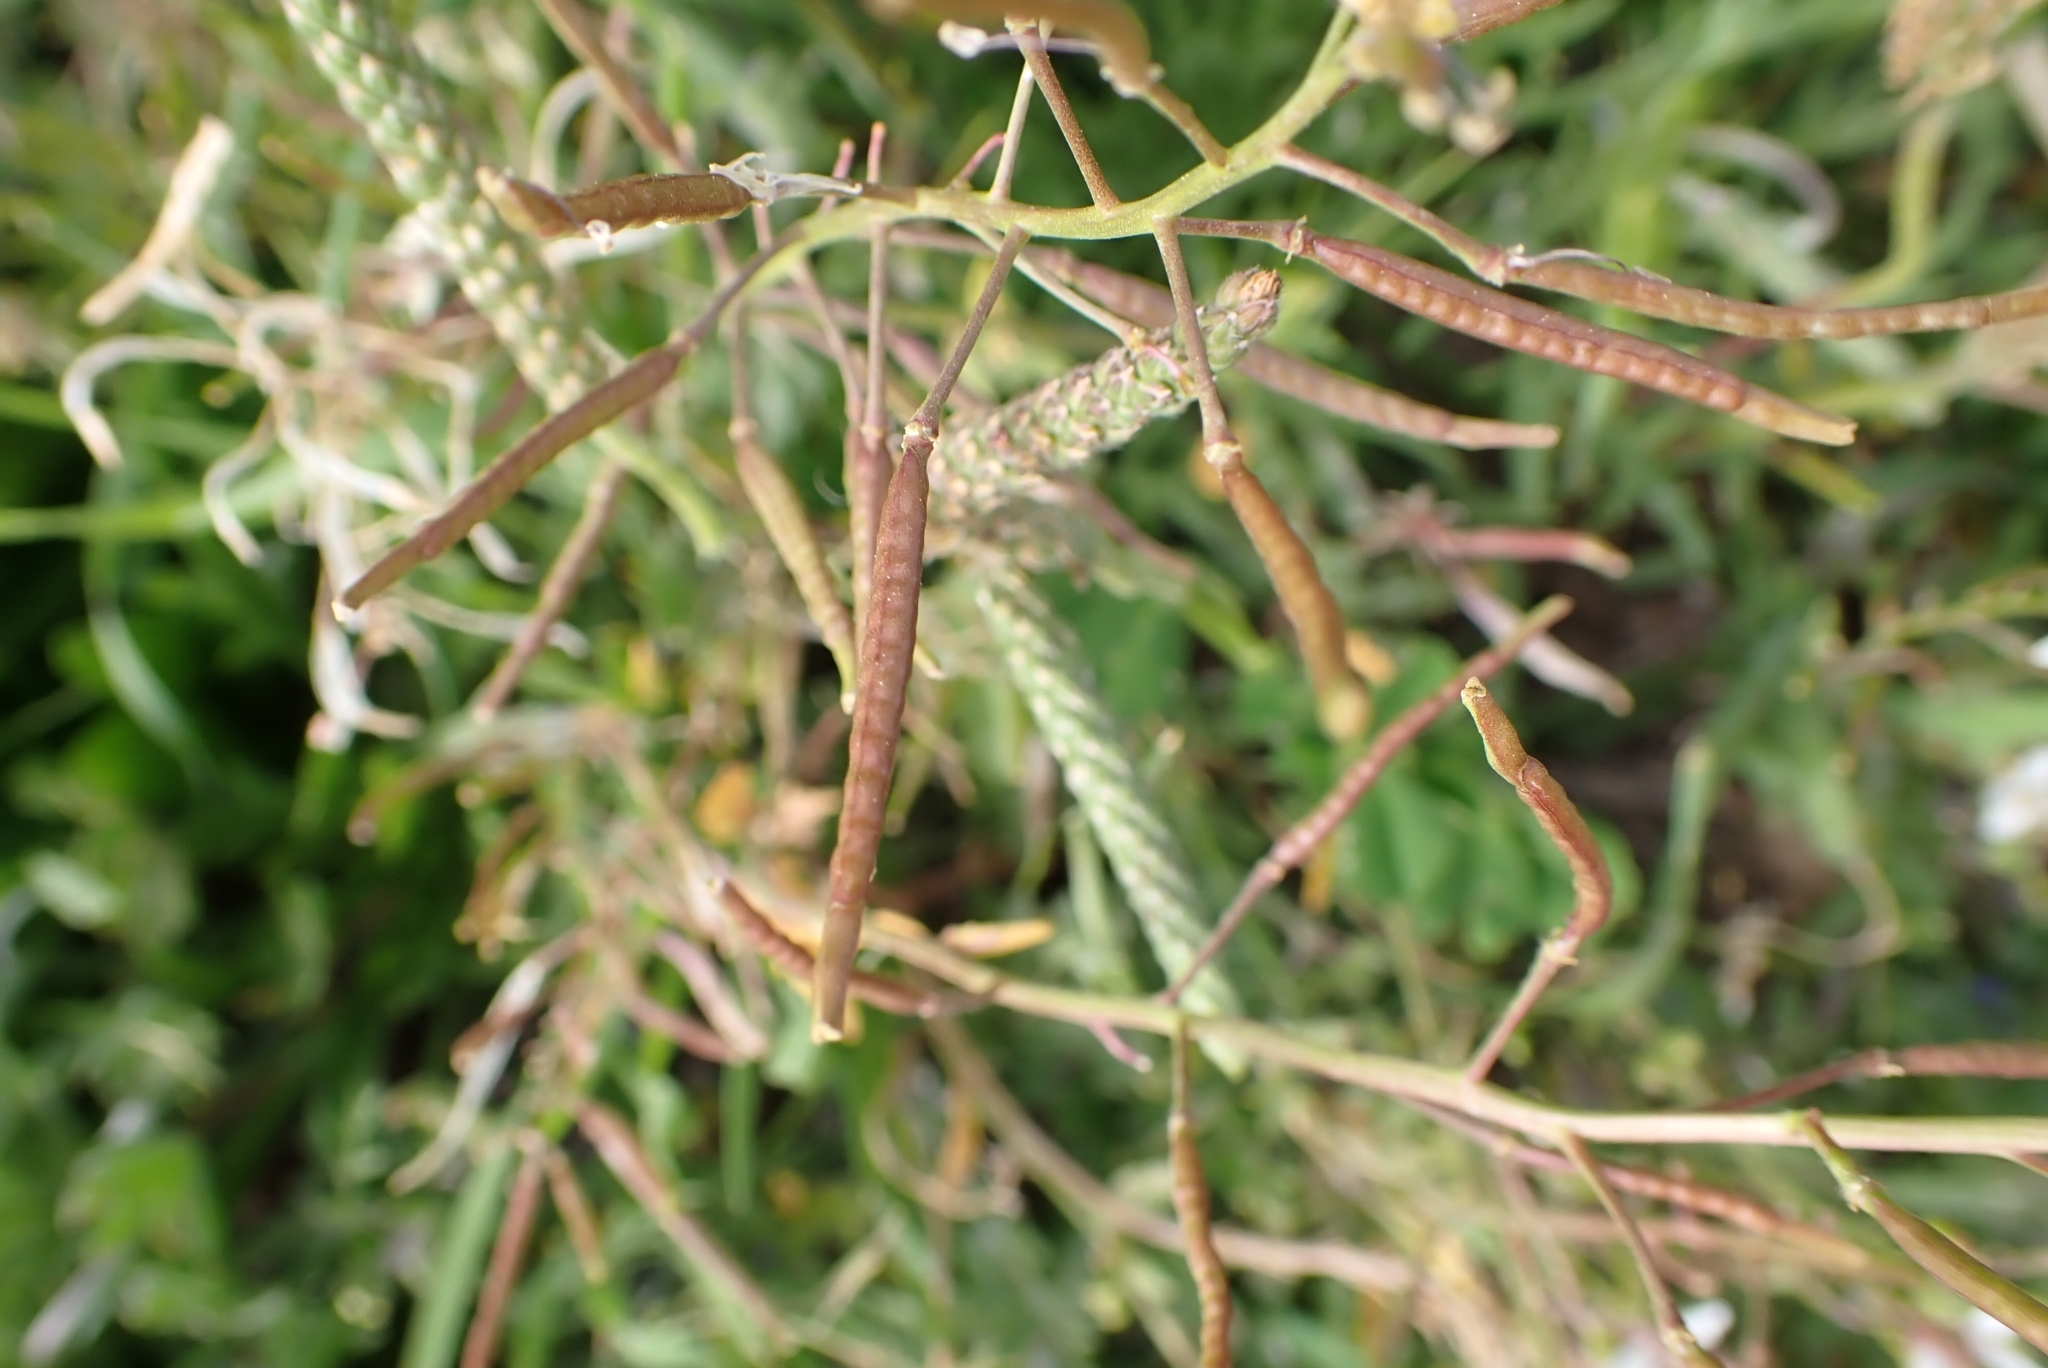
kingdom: Plantae
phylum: Tracheophyta
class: Magnoliopsida
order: Brassicales
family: Brassicaceae
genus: Diplotaxis
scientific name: Diplotaxis erucoides
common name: White rocket
